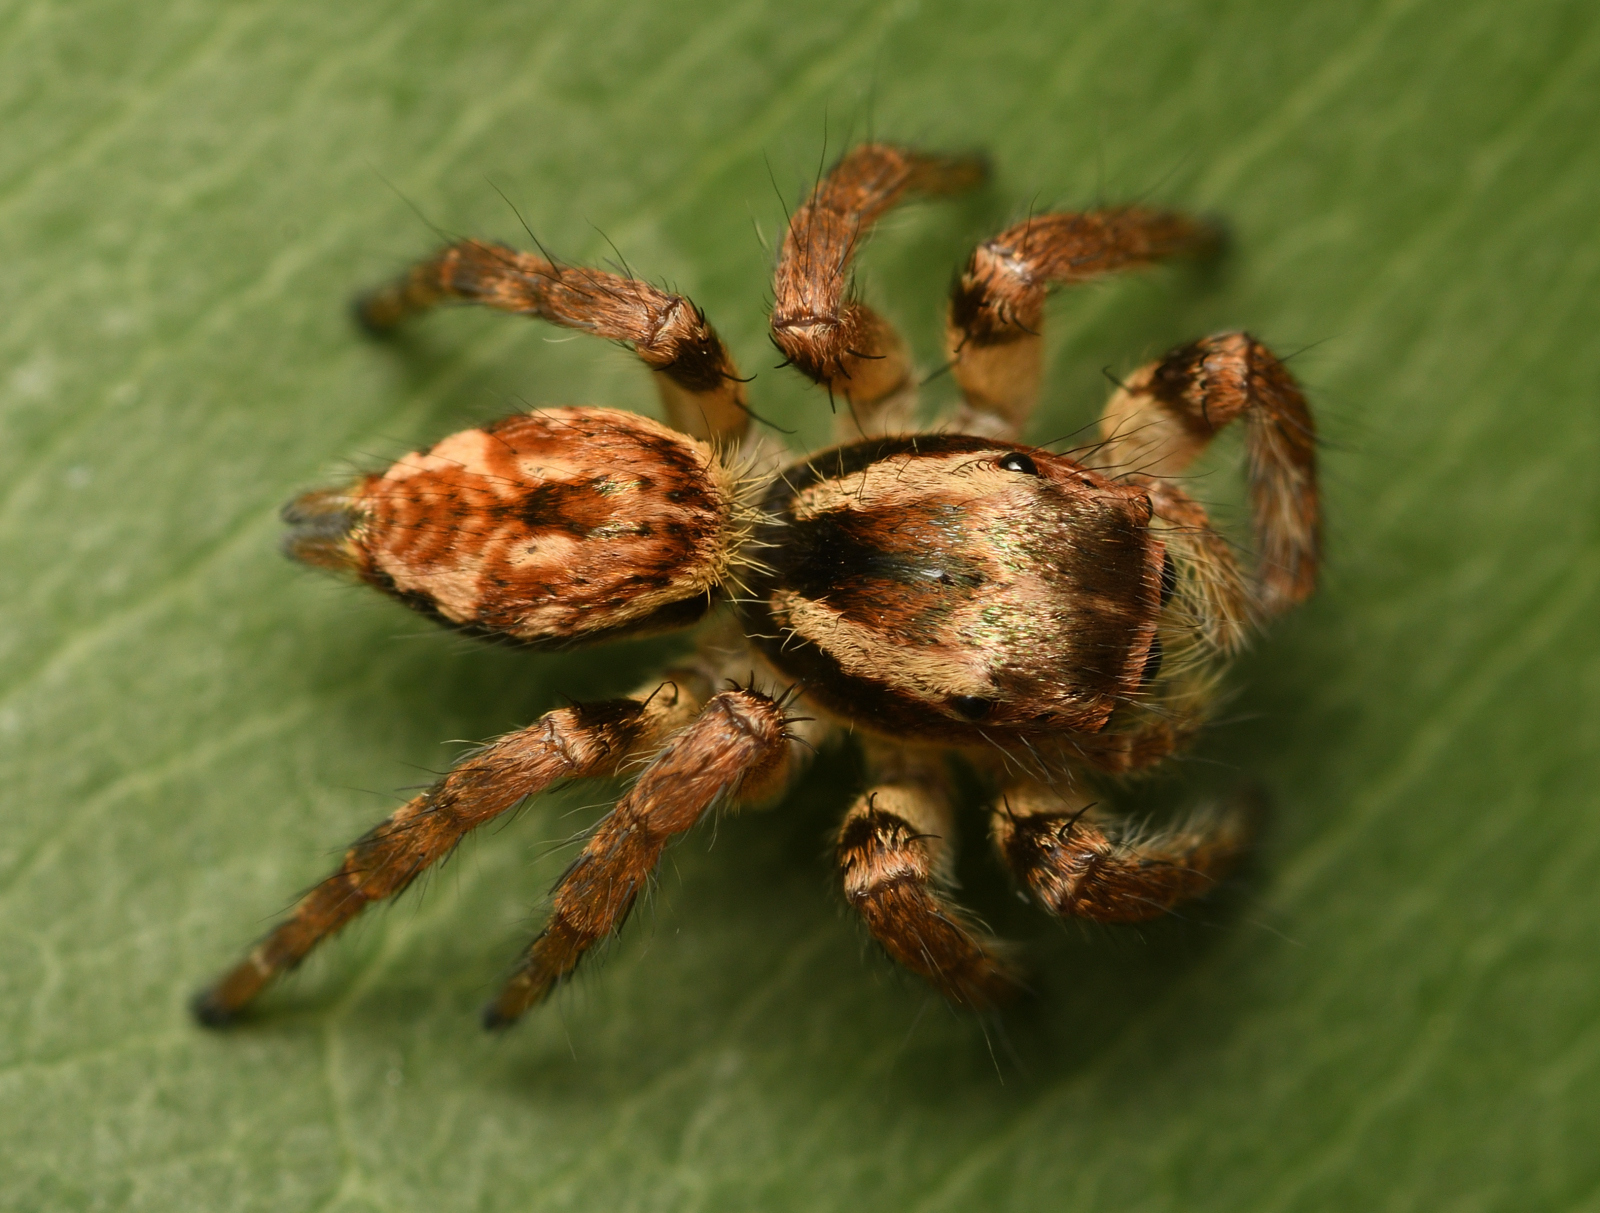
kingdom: Animalia
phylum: Arthropoda
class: Arachnida
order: Araneae
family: Salticidae
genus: Carrhotus
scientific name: Carrhotus viduus
